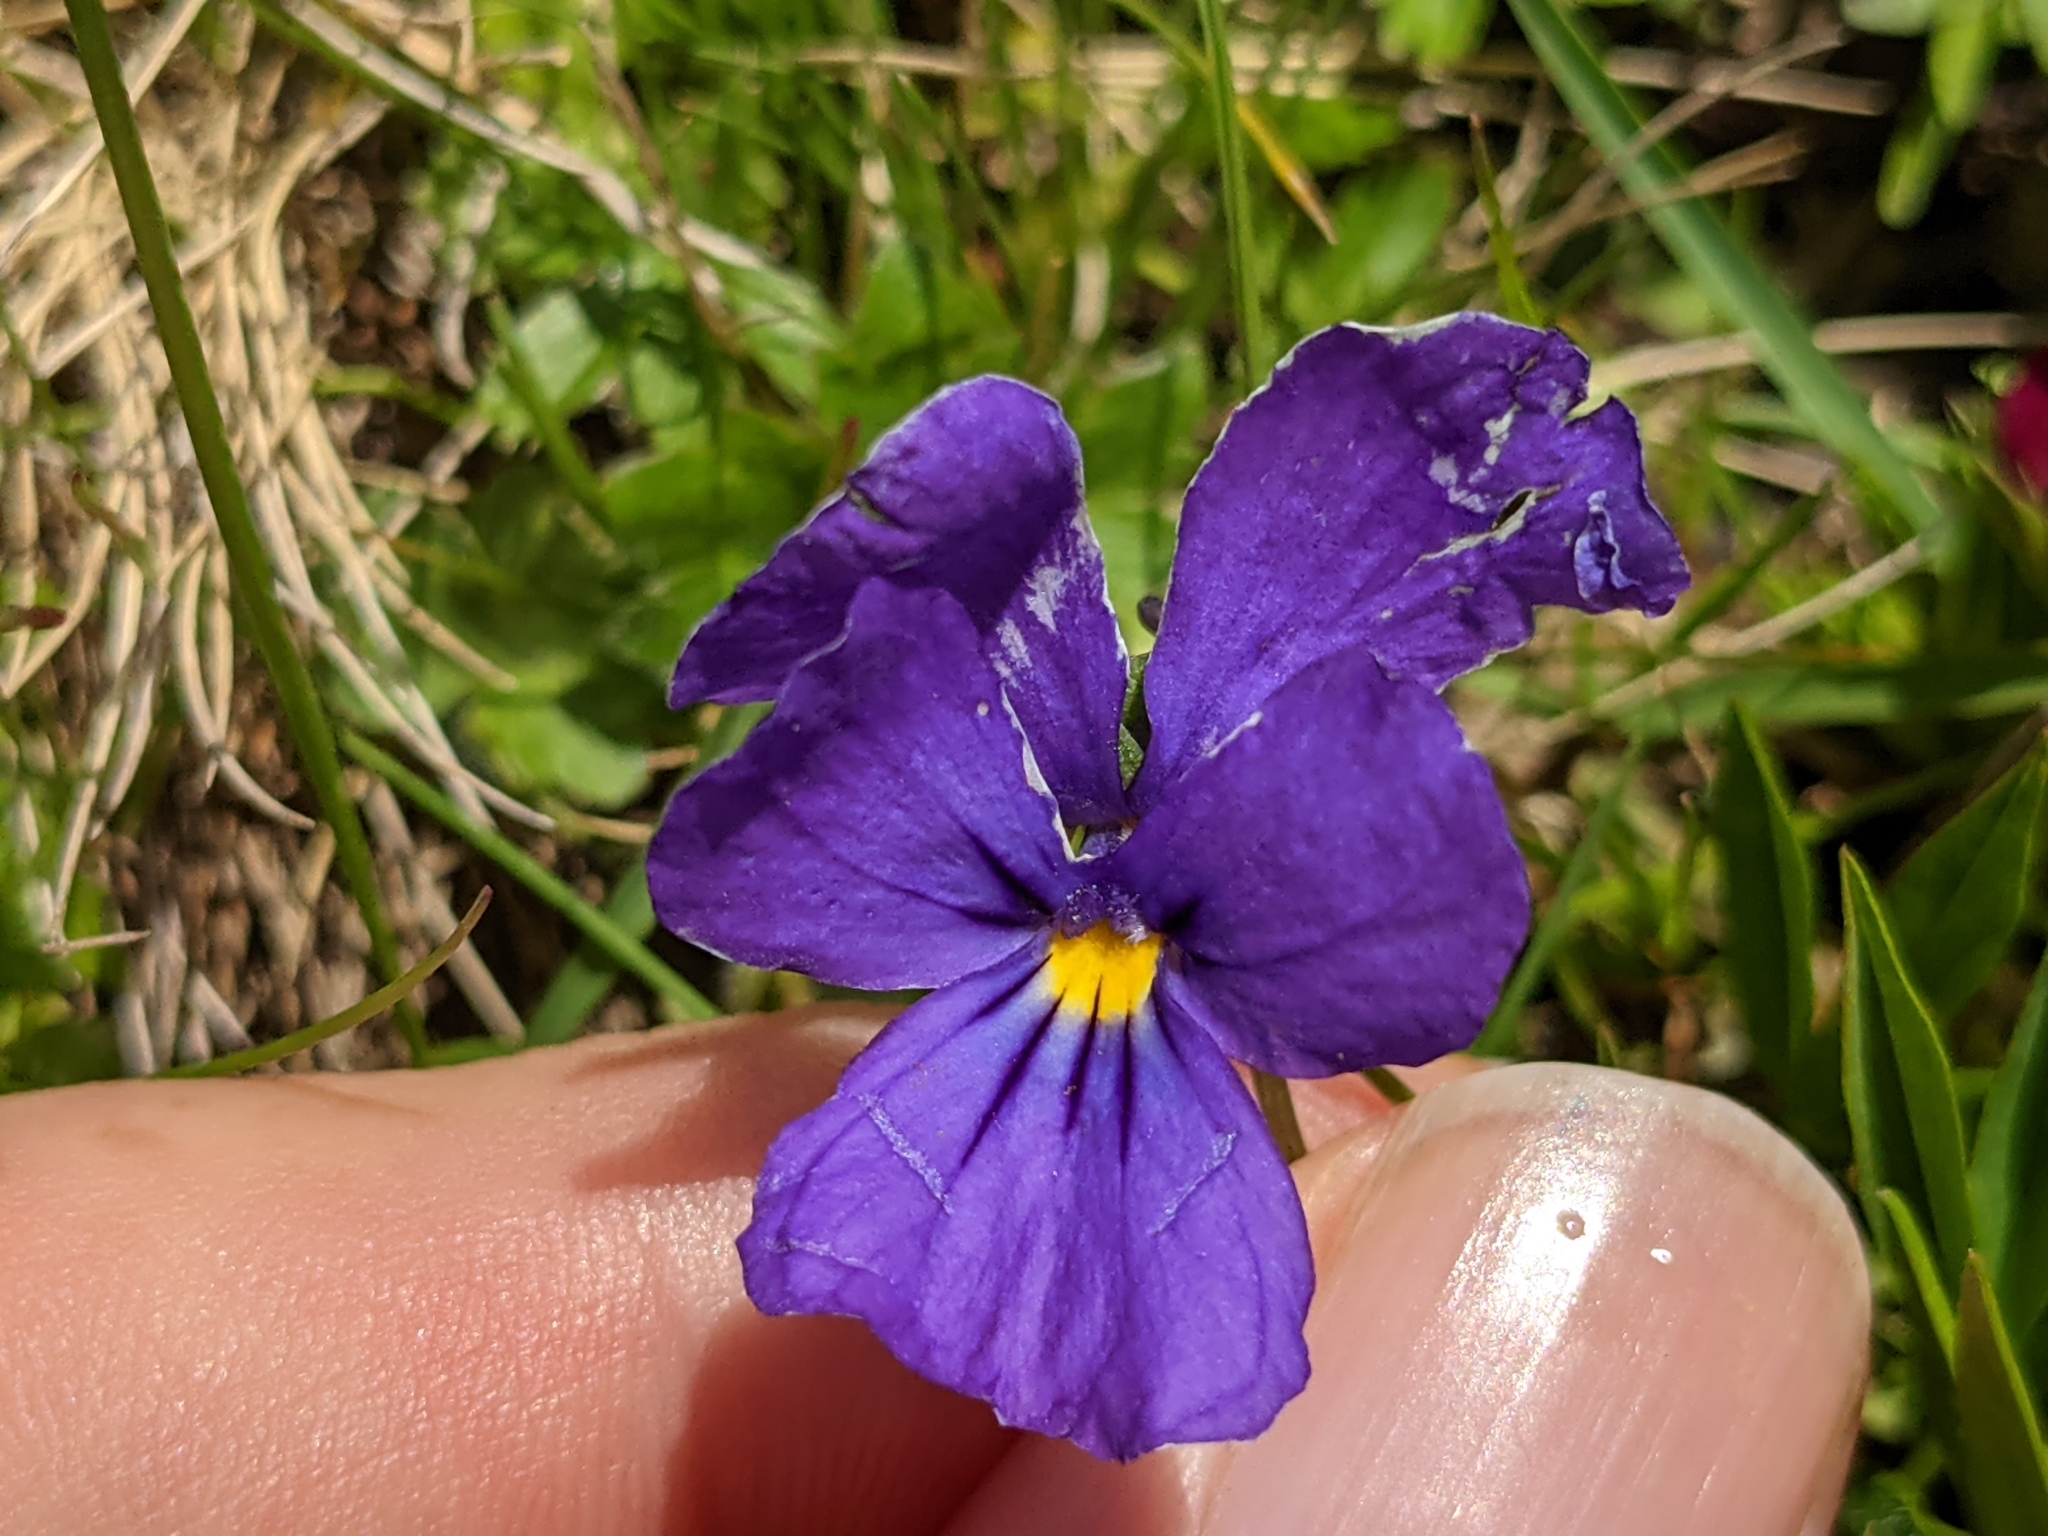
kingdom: Plantae
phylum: Tracheophyta
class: Magnoliopsida
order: Malpighiales
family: Violaceae
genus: Viola
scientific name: Viola calcarata
